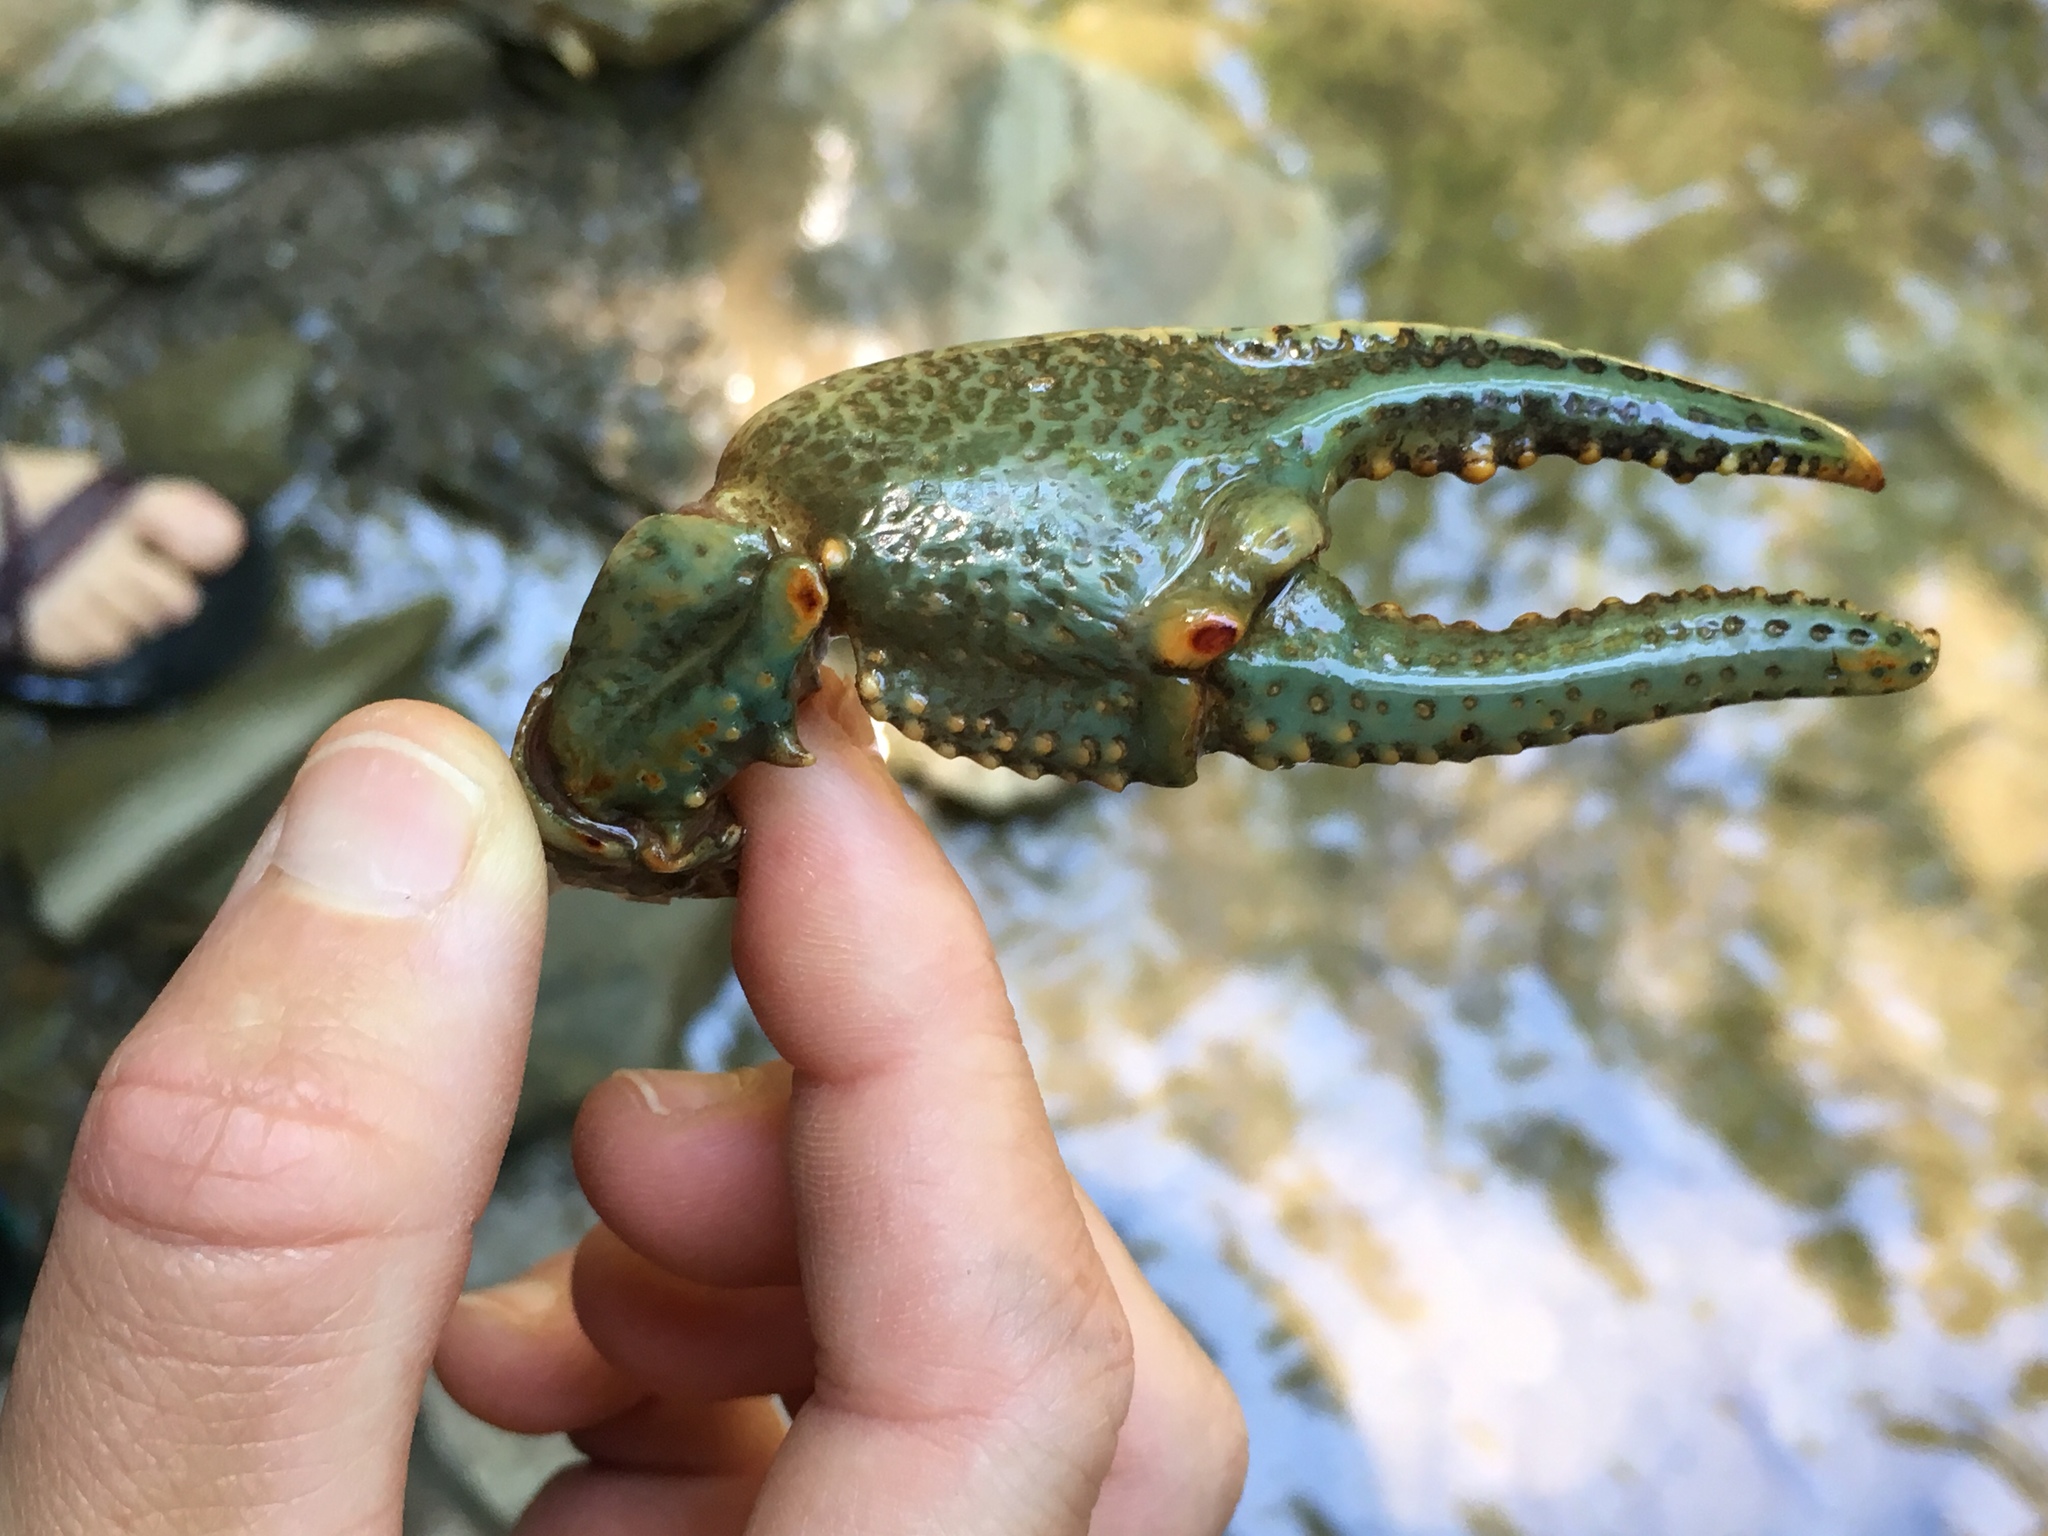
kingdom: Animalia
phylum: Arthropoda
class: Malacostraca
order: Decapoda
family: Cambaridae
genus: Cambarus
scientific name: Cambarus robustus
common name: Big water crayfish
